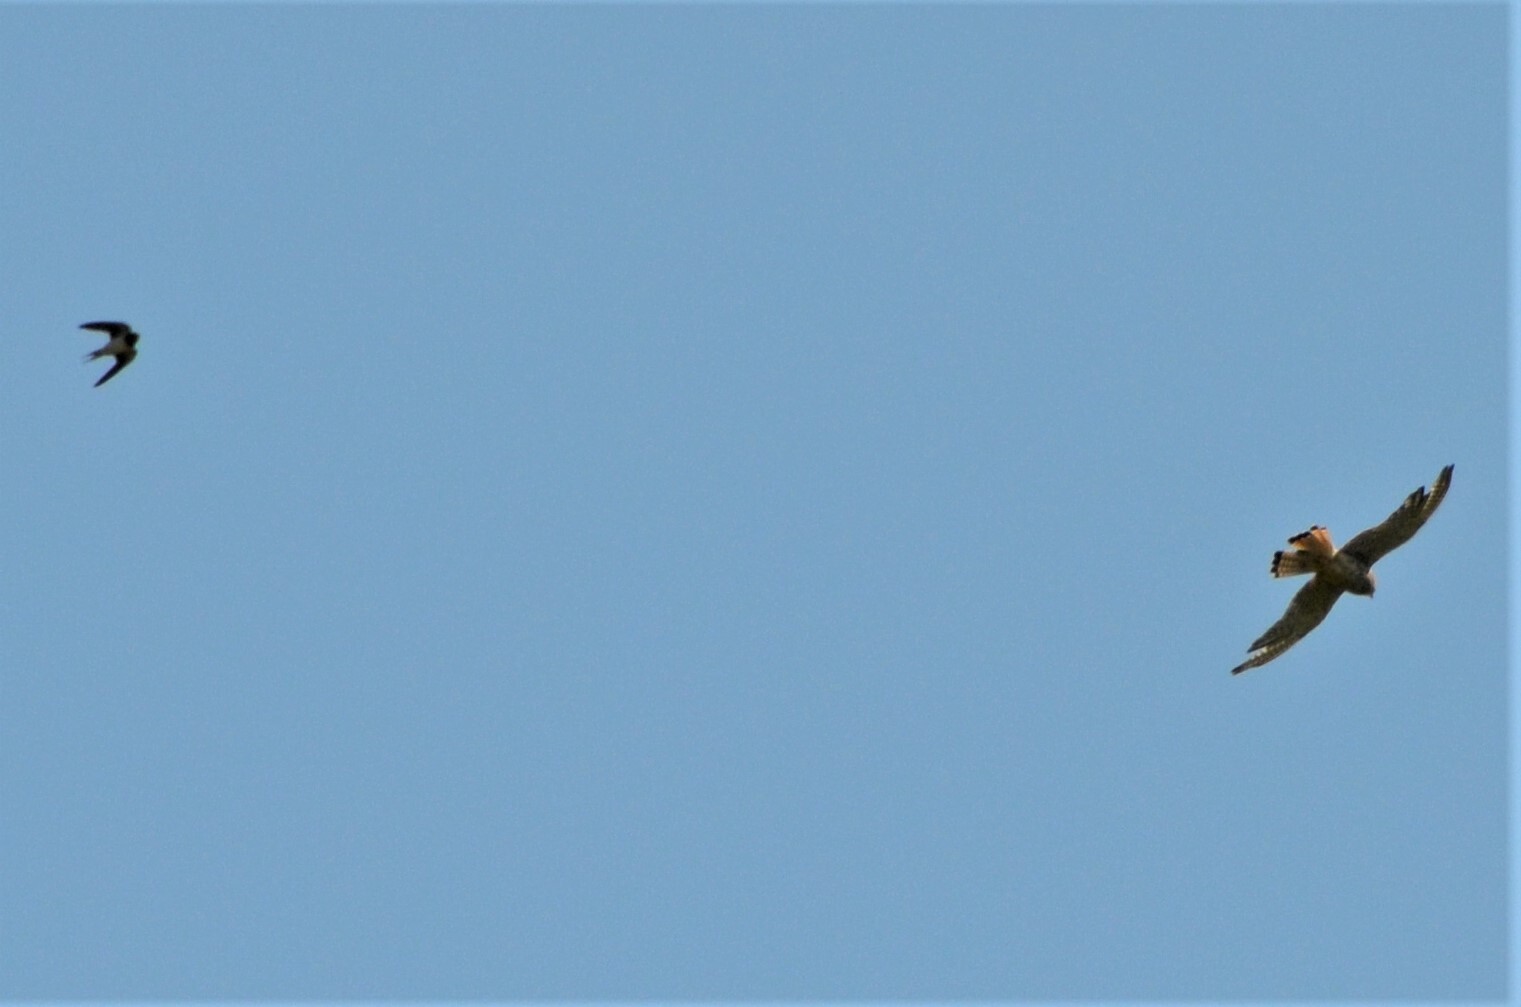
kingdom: Animalia
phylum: Chordata
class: Aves
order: Falconiformes
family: Falconidae
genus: Falco
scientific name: Falco tinnunculus
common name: Common kestrel
